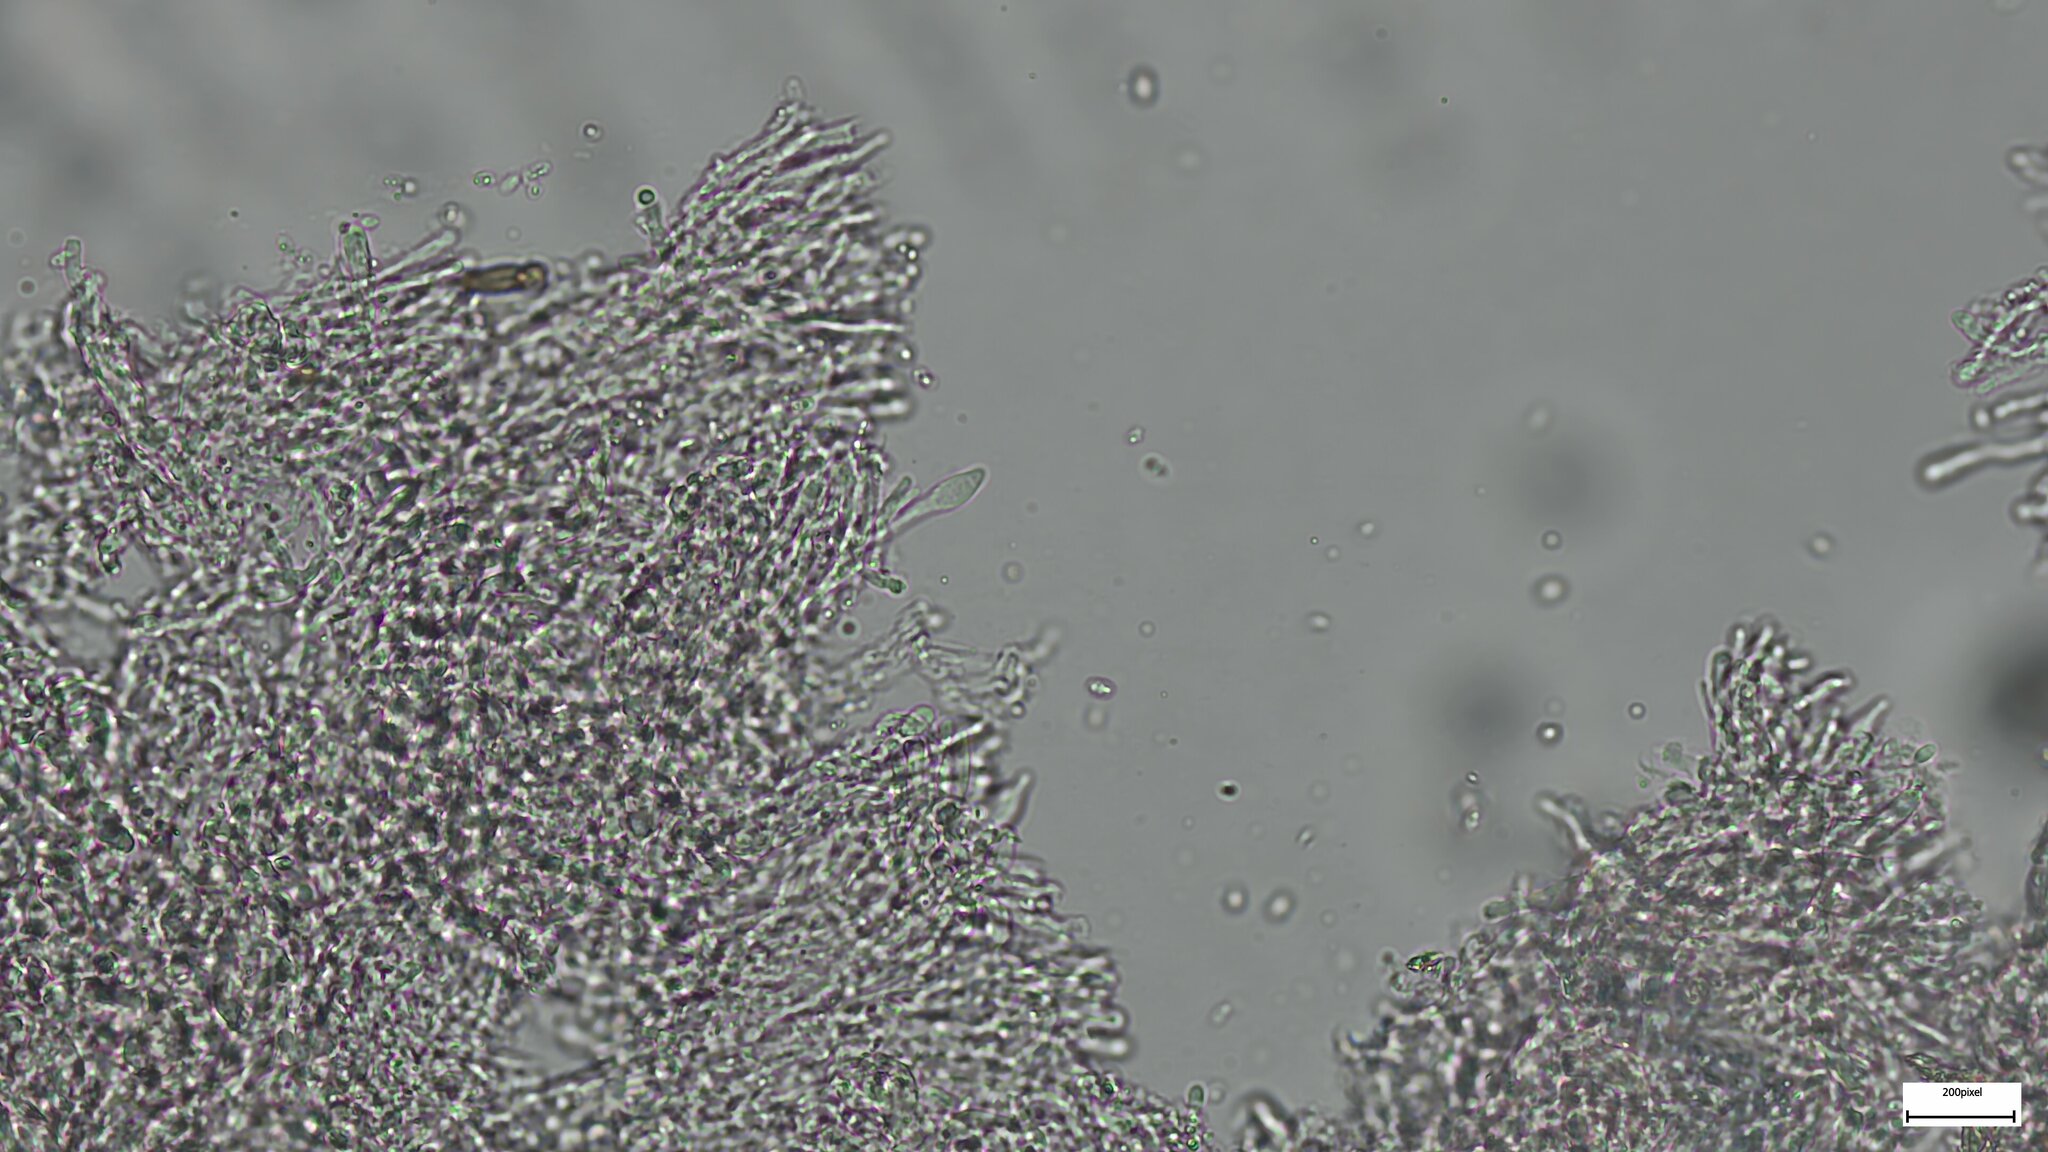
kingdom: Fungi
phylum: Basidiomycota
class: Agaricomycetes
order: Polyporales
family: Meruliaceae
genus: Crustodontia
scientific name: Crustodontia chrysocreas
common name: Wood decay
